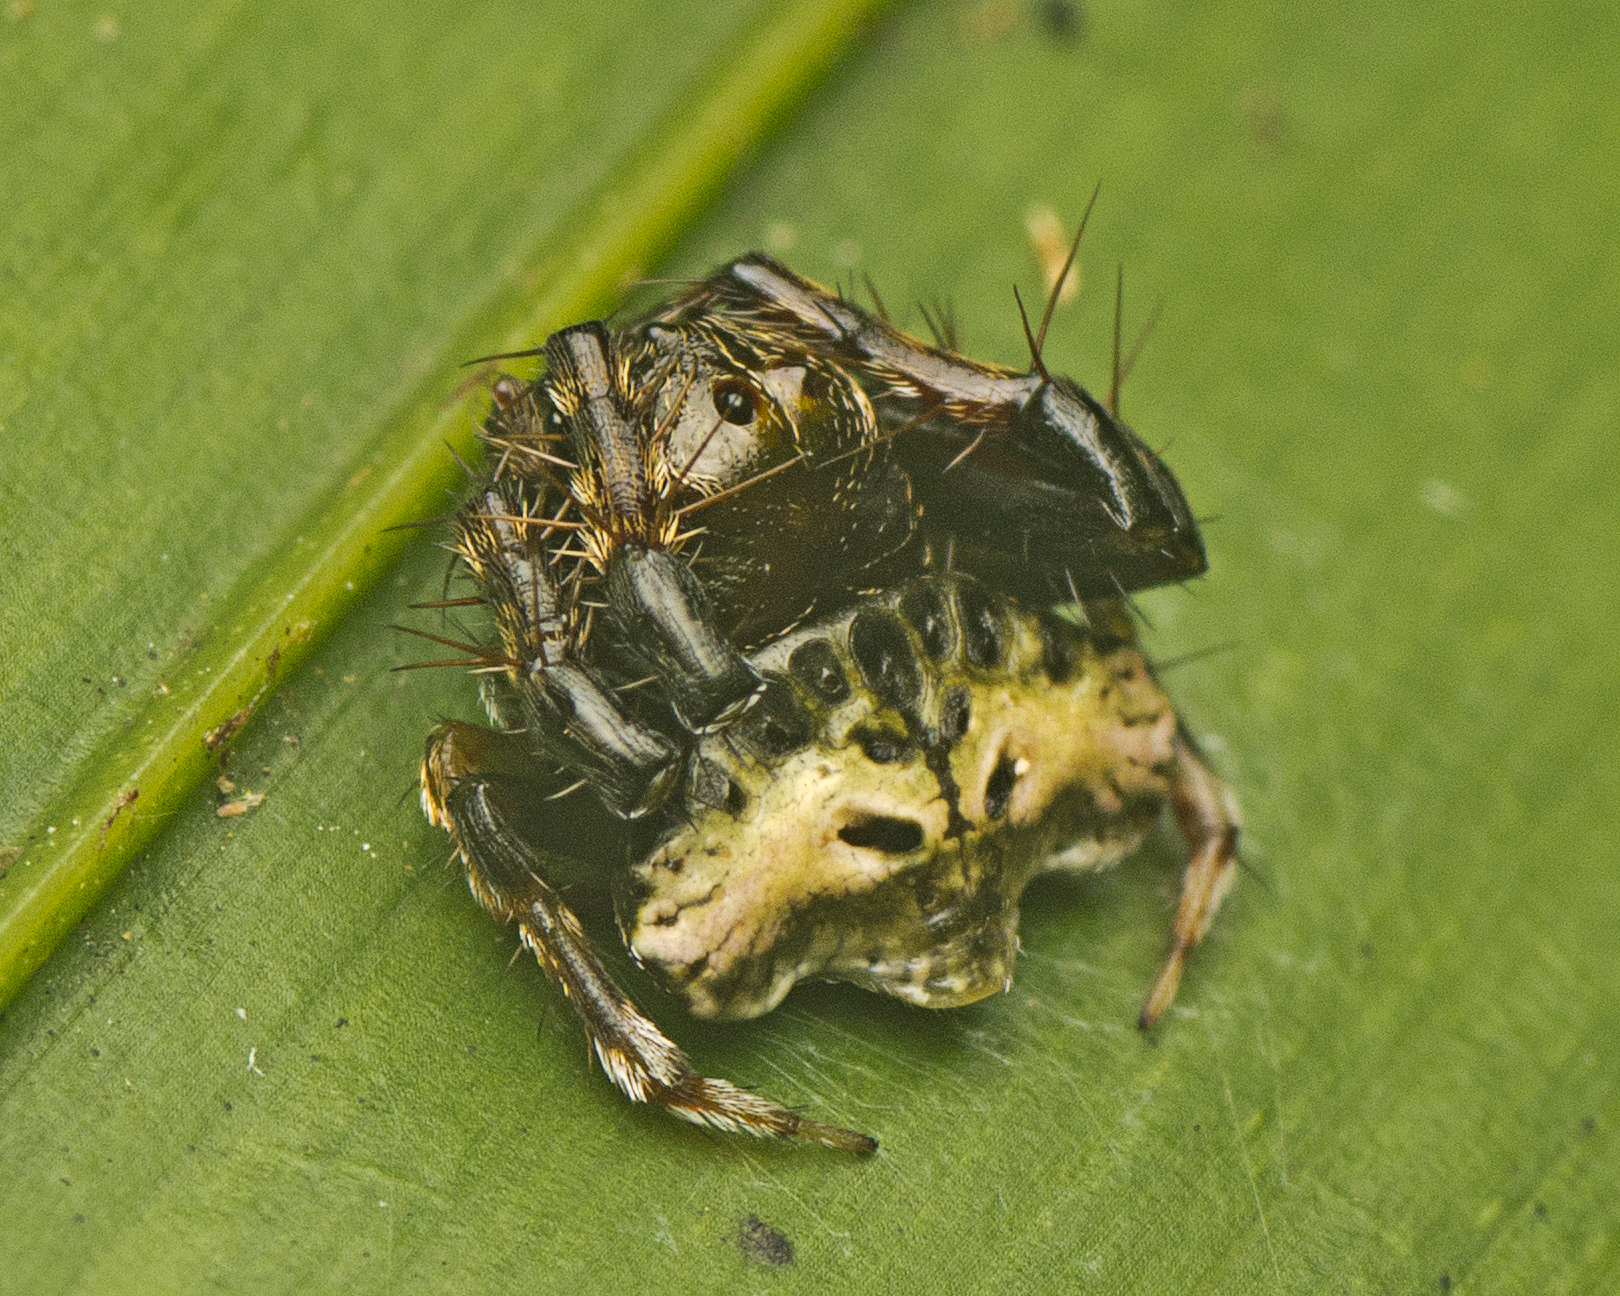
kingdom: Animalia
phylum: Arthropoda
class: Arachnida
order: Araneae
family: Arkyidae
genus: Arkys
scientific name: Arkys speechleyi
